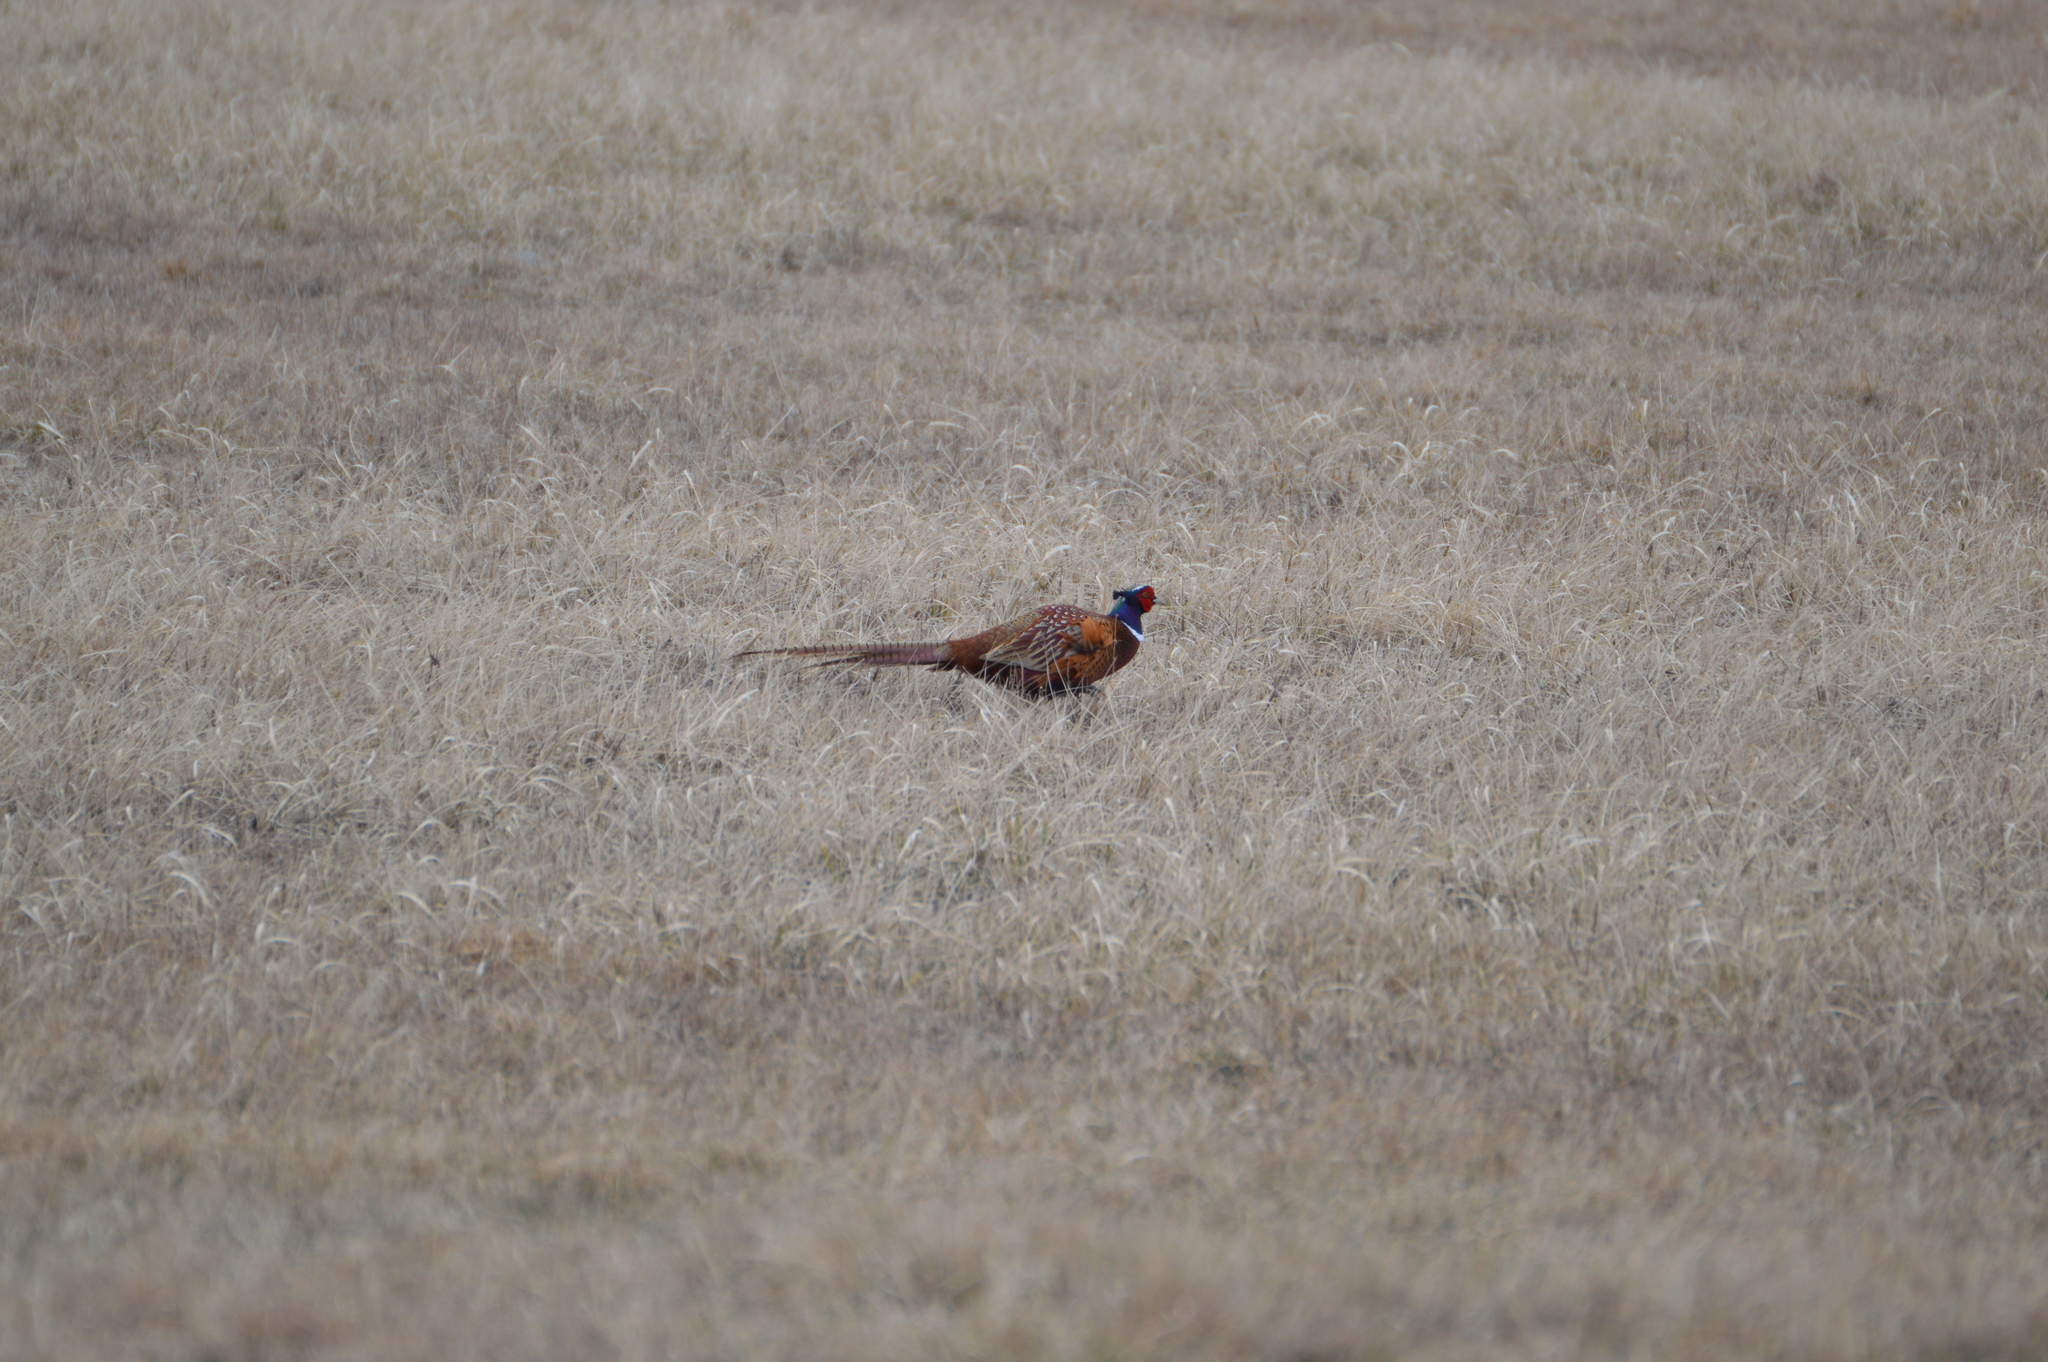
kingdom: Animalia
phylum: Chordata
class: Aves
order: Galliformes
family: Phasianidae
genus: Phasianus
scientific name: Phasianus colchicus
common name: Common pheasant
